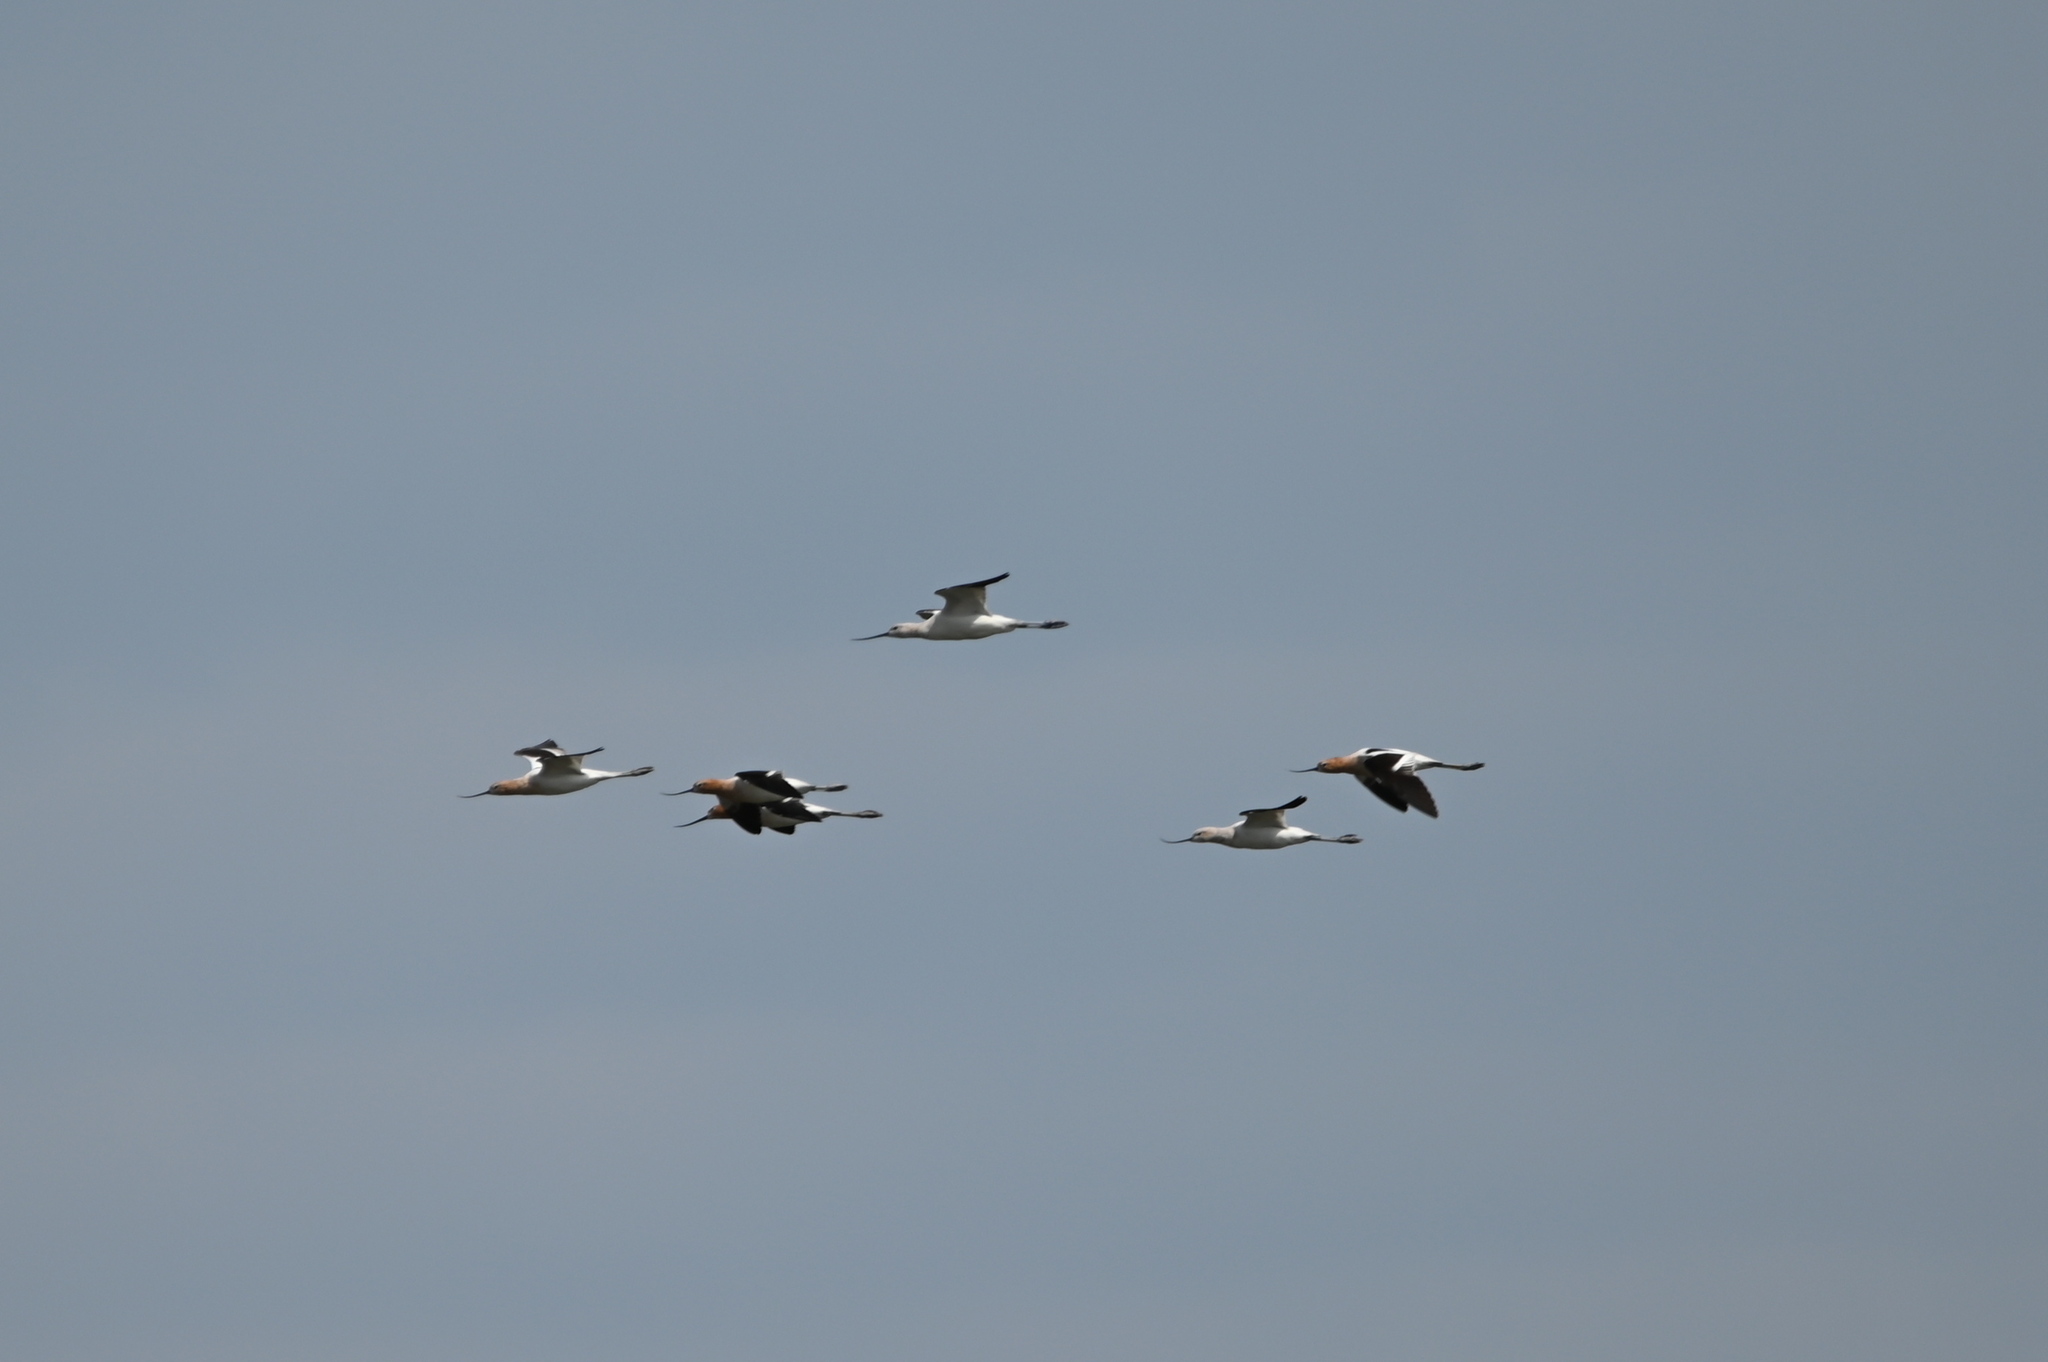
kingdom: Animalia
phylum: Chordata
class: Aves
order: Charadriiformes
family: Recurvirostridae
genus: Recurvirostra
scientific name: Recurvirostra americana
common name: American avocet
